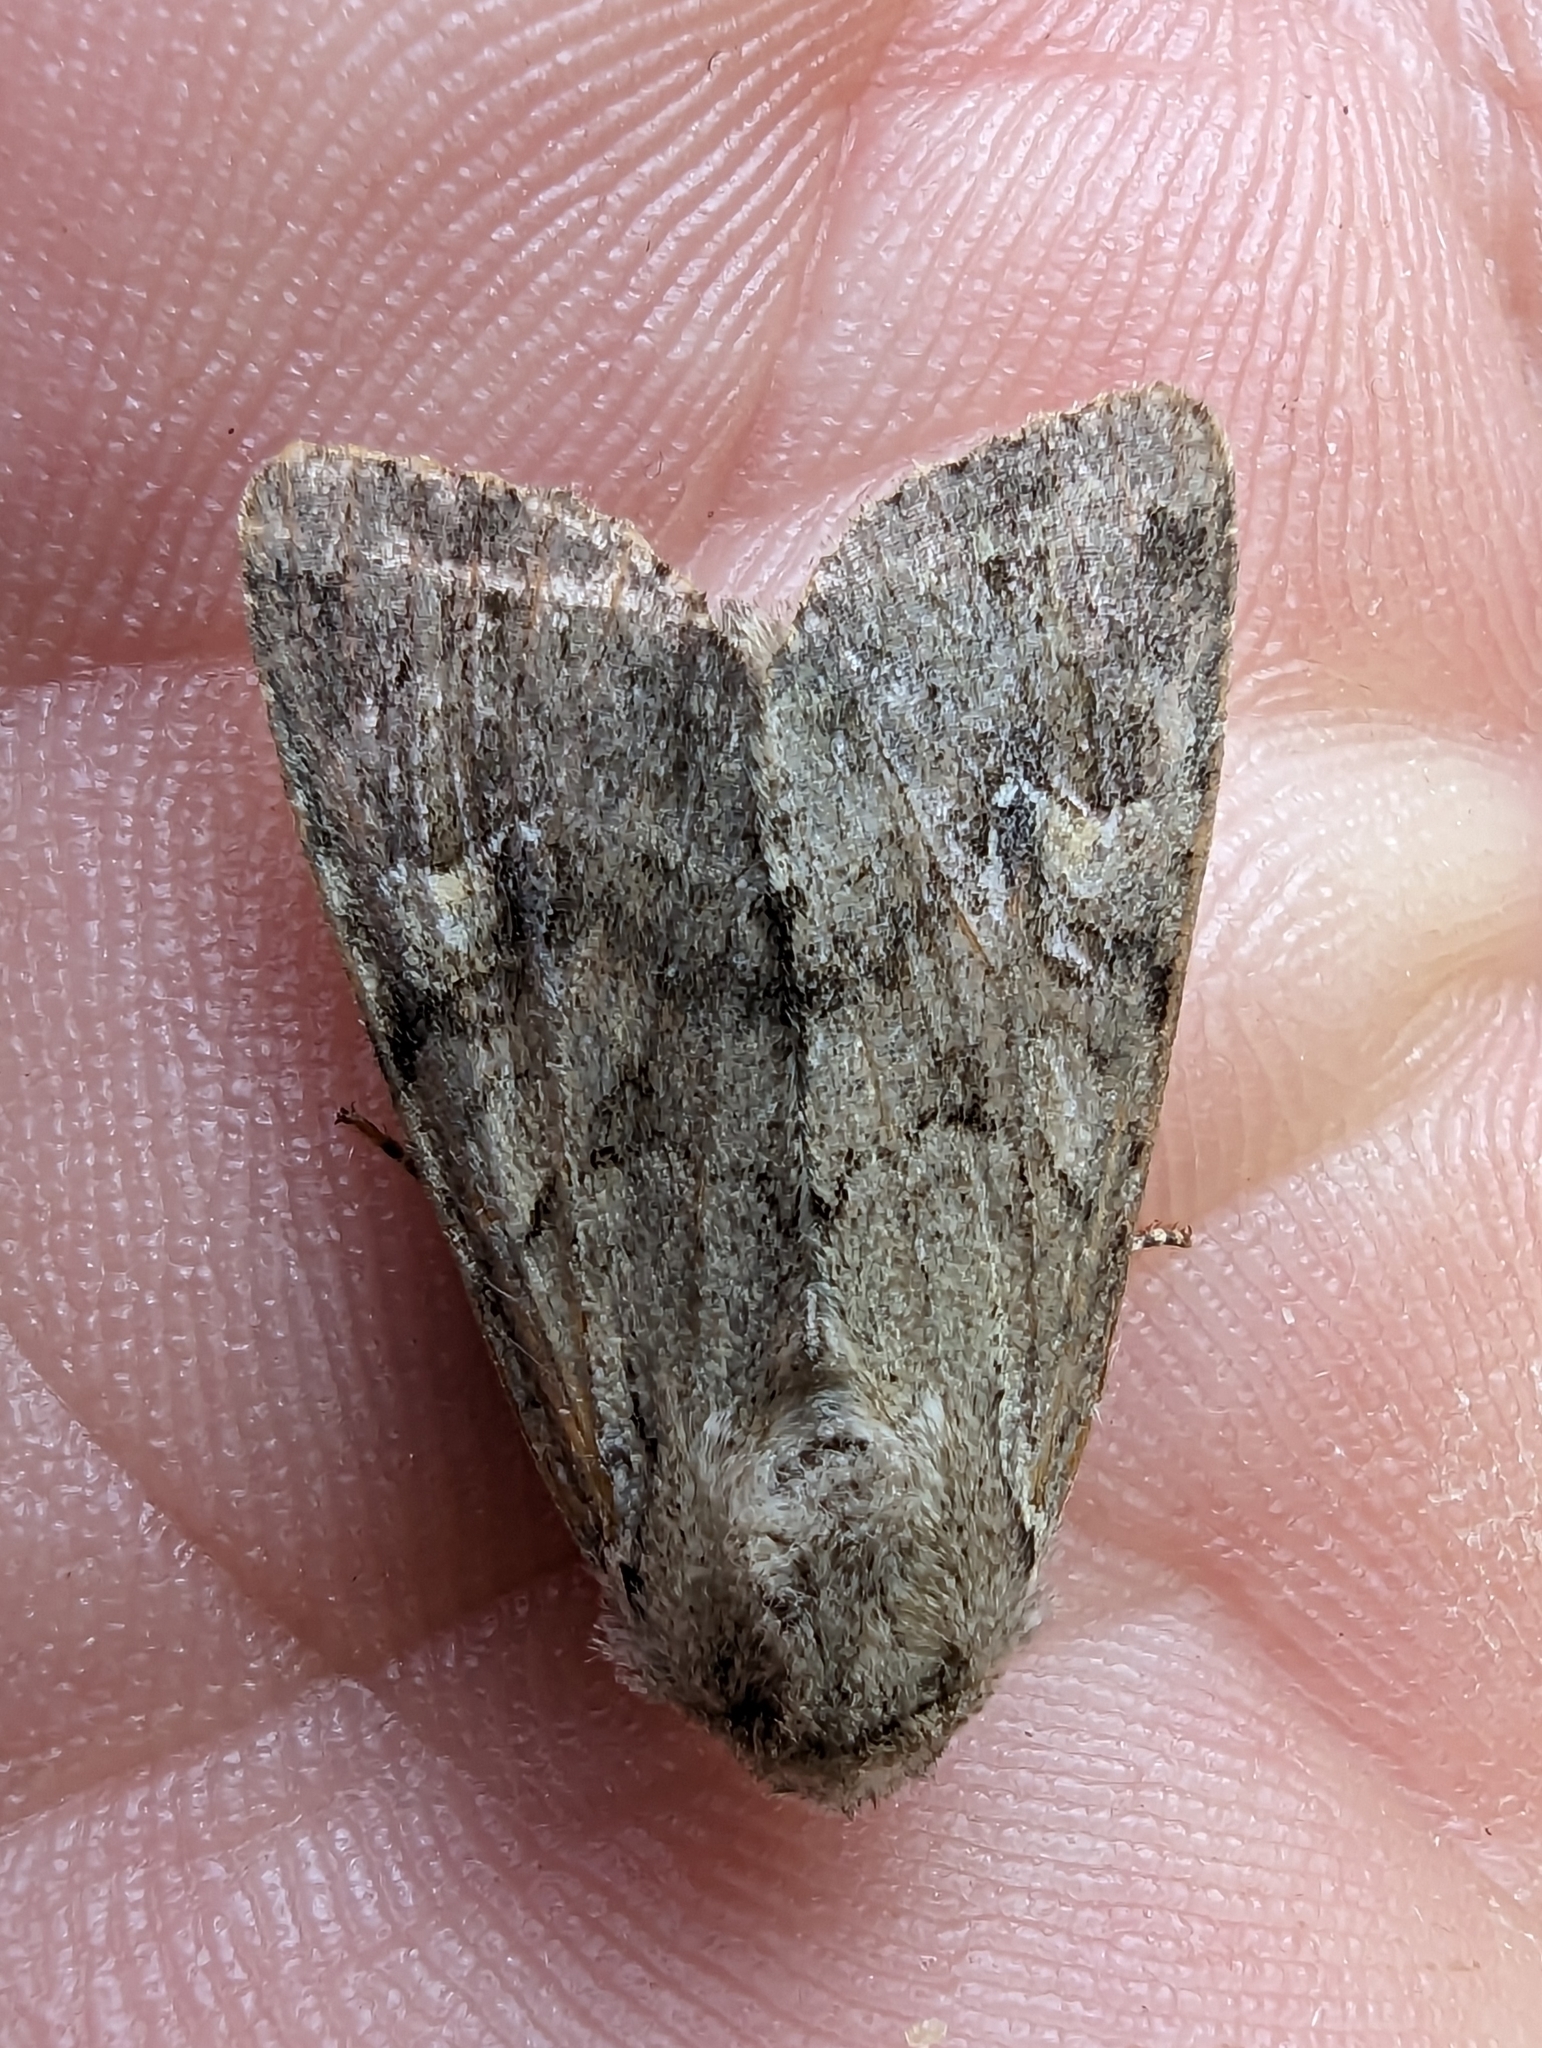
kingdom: Animalia
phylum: Arthropoda
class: Insecta
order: Lepidoptera
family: Noctuidae
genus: Apamea
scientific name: Apamea sordens
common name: Rustic shoulder-knot
